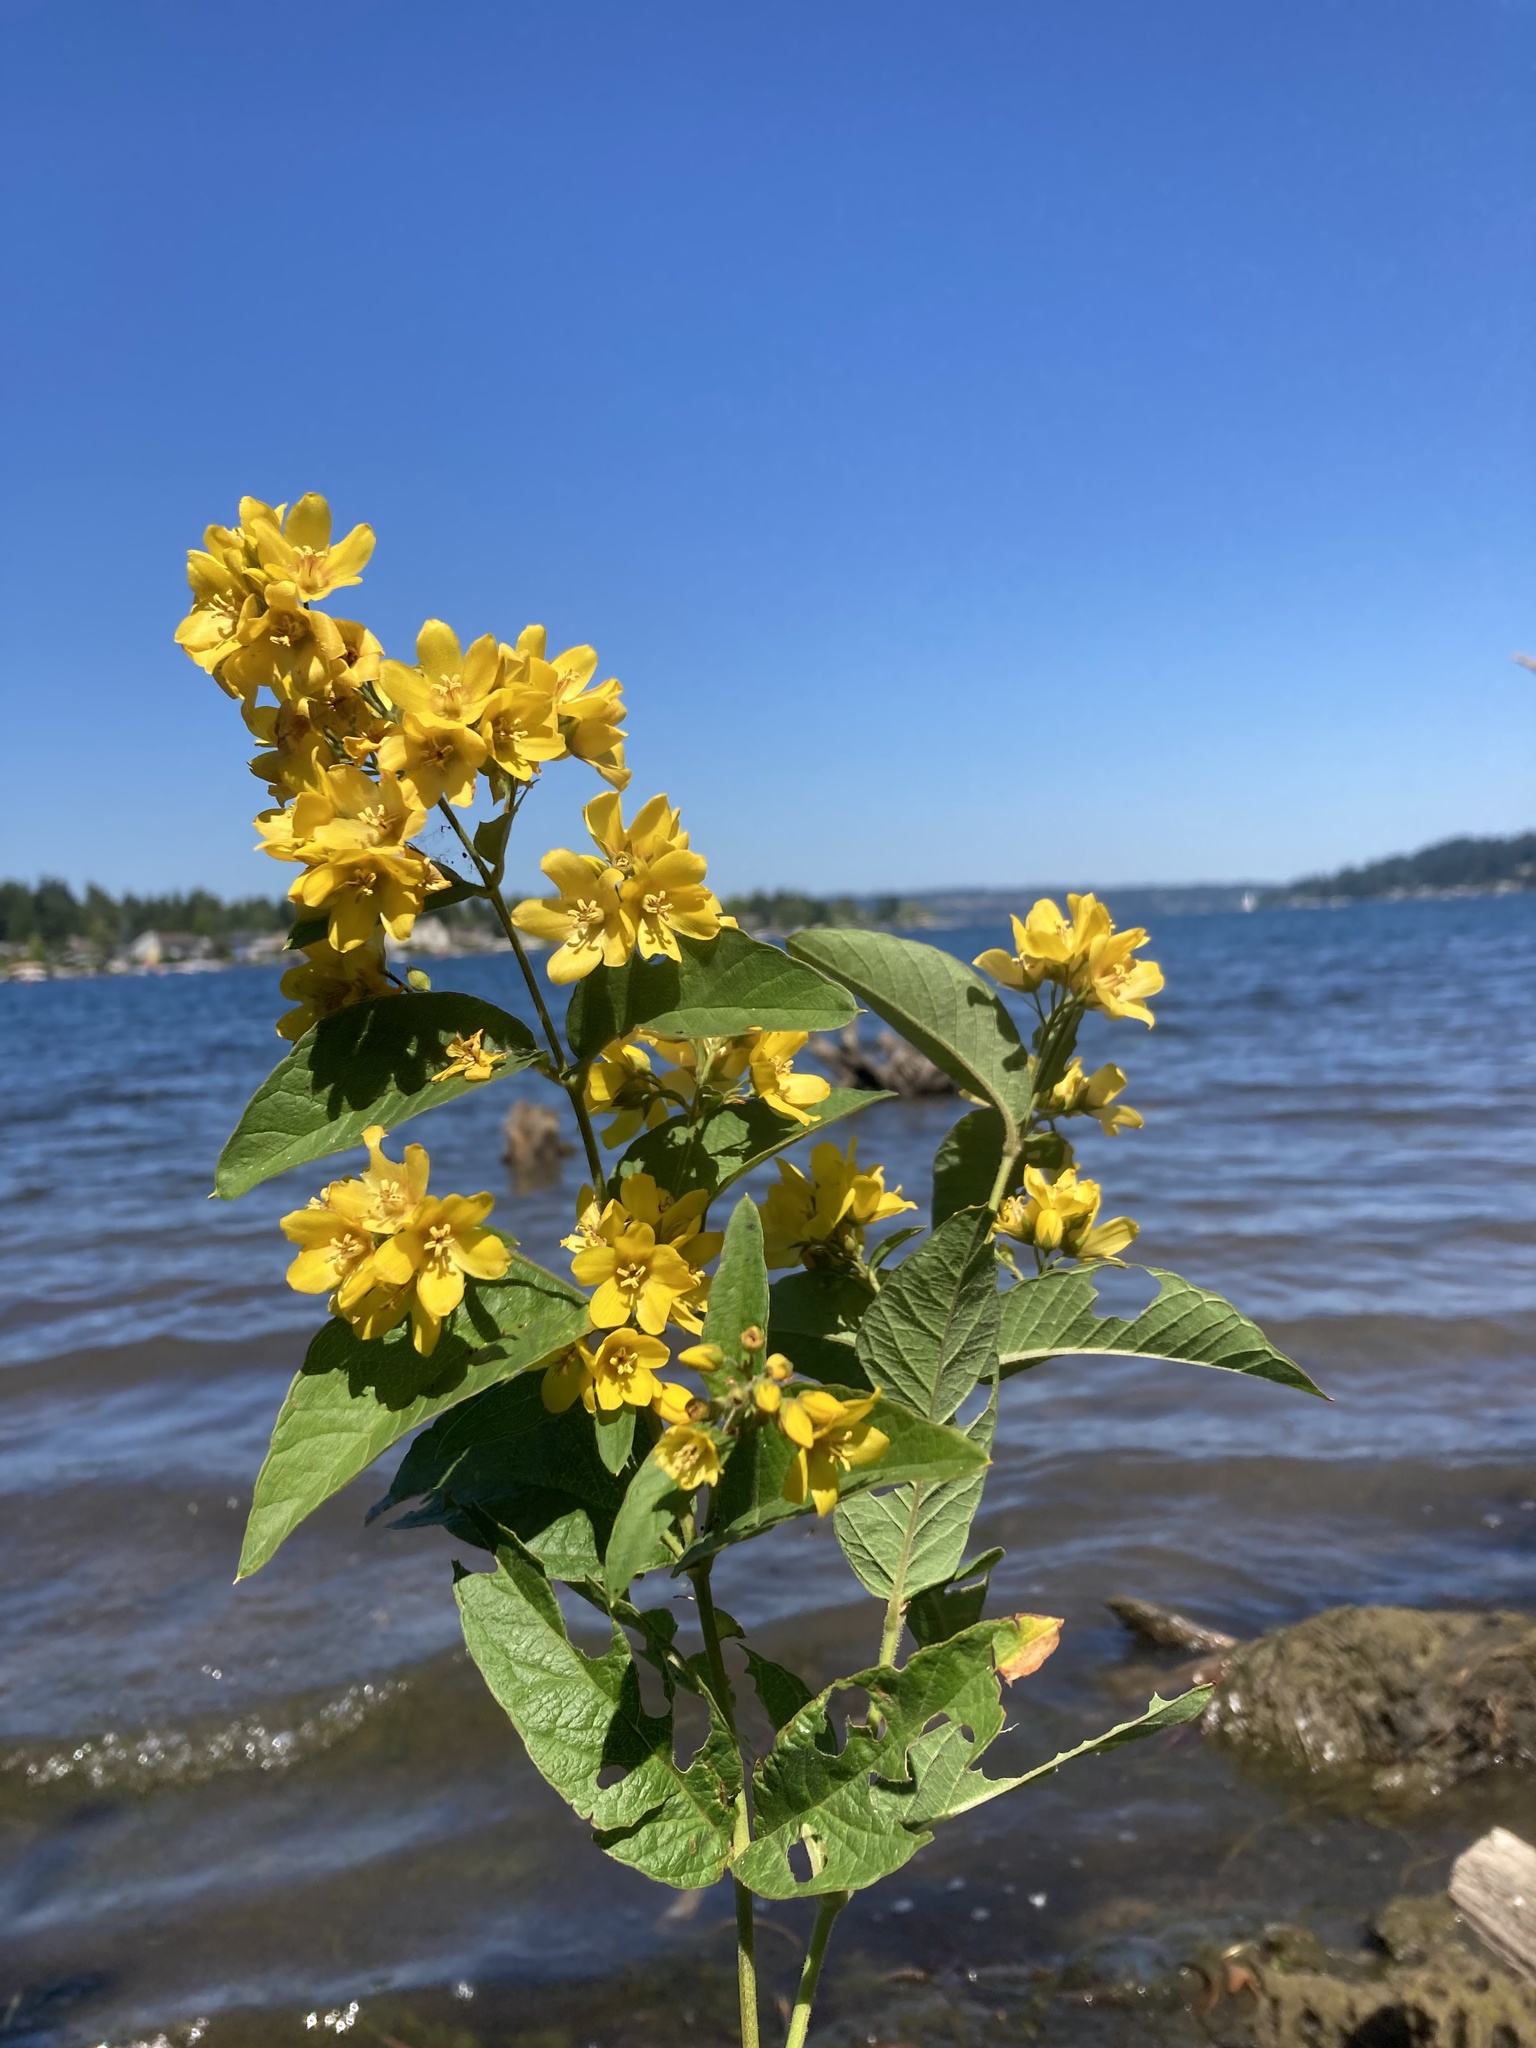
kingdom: Plantae
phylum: Tracheophyta
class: Magnoliopsida
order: Ericales
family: Primulaceae
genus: Lysimachia
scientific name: Lysimachia vulgaris
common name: Yellow loosestrife
